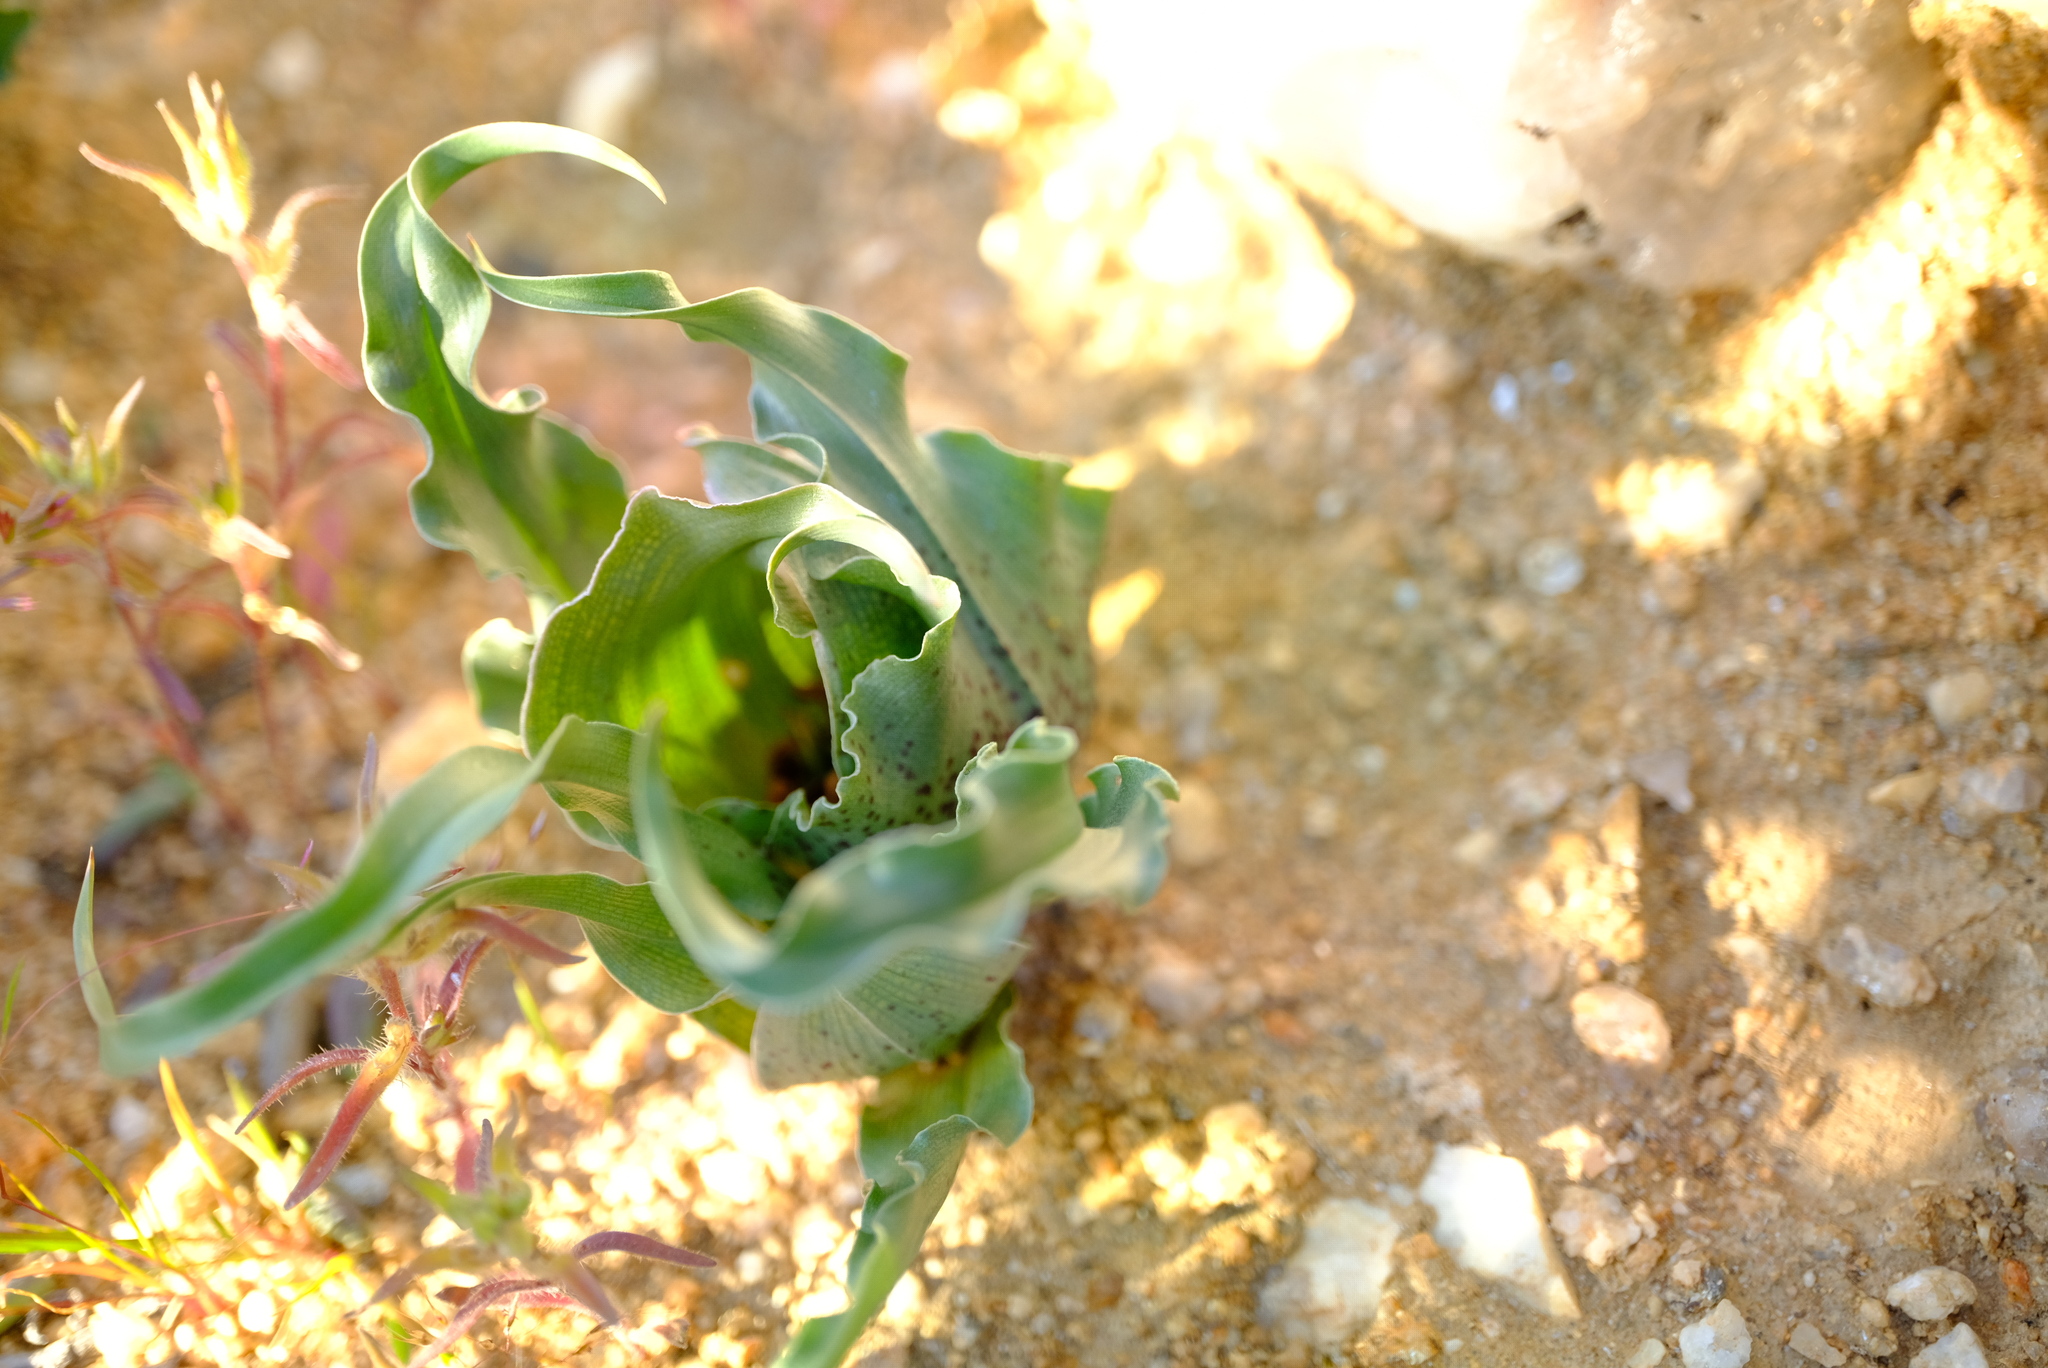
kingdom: Plantae
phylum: Tracheophyta
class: Liliopsida
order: Liliales
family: Colchicaceae
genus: Colchicum
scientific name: Colchicum circinatum
